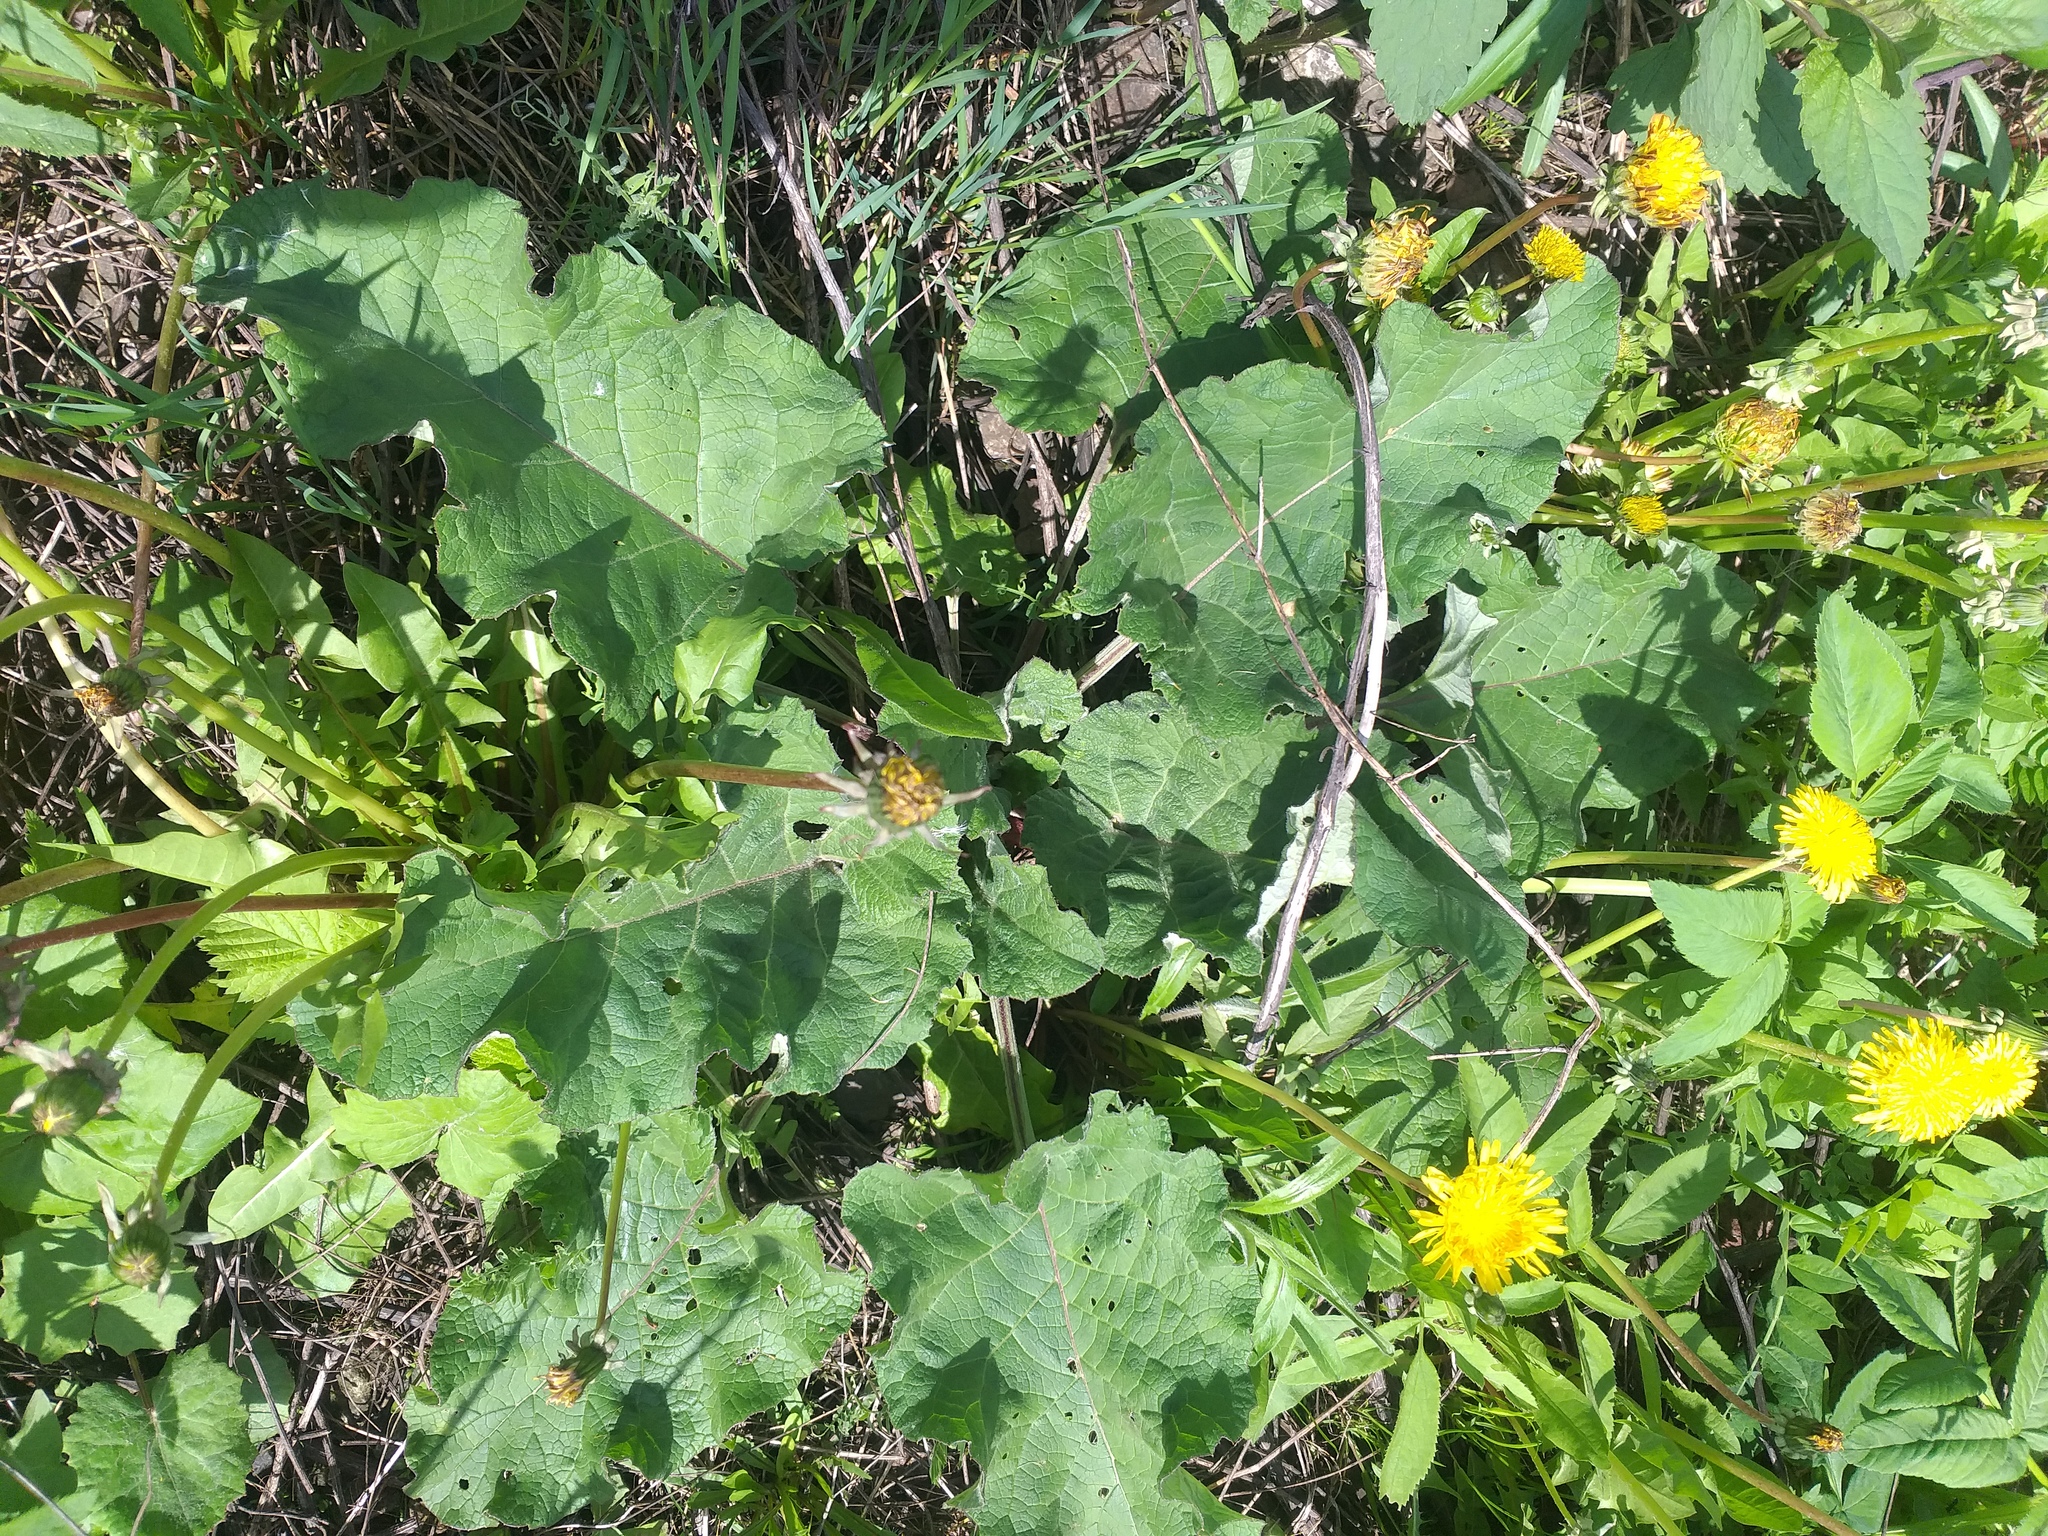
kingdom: Plantae
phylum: Tracheophyta
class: Magnoliopsida
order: Asterales
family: Asteraceae
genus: Arctium
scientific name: Arctium tomentosum
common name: Woolly burdock
